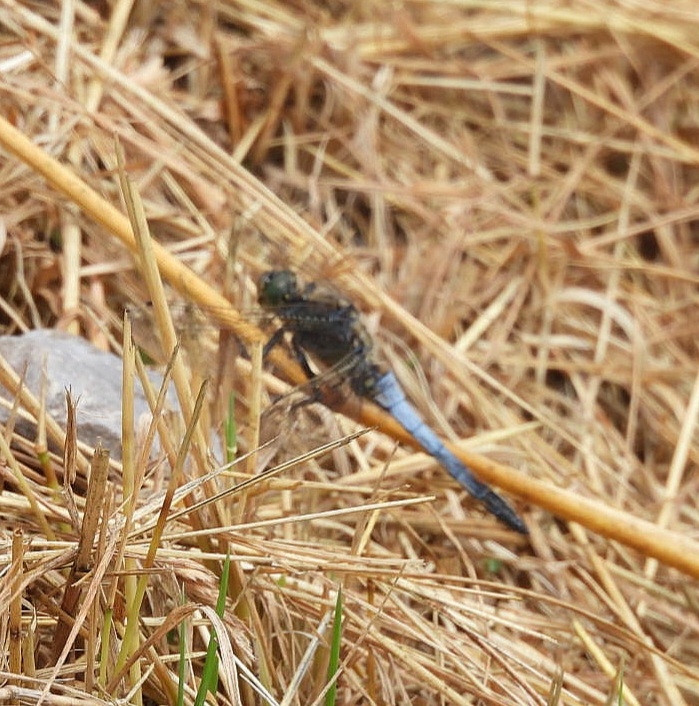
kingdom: Animalia
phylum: Arthropoda
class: Insecta
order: Odonata
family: Libellulidae
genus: Orthetrum
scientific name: Orthetrum cancellatum
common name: Black-tailed skimmer
